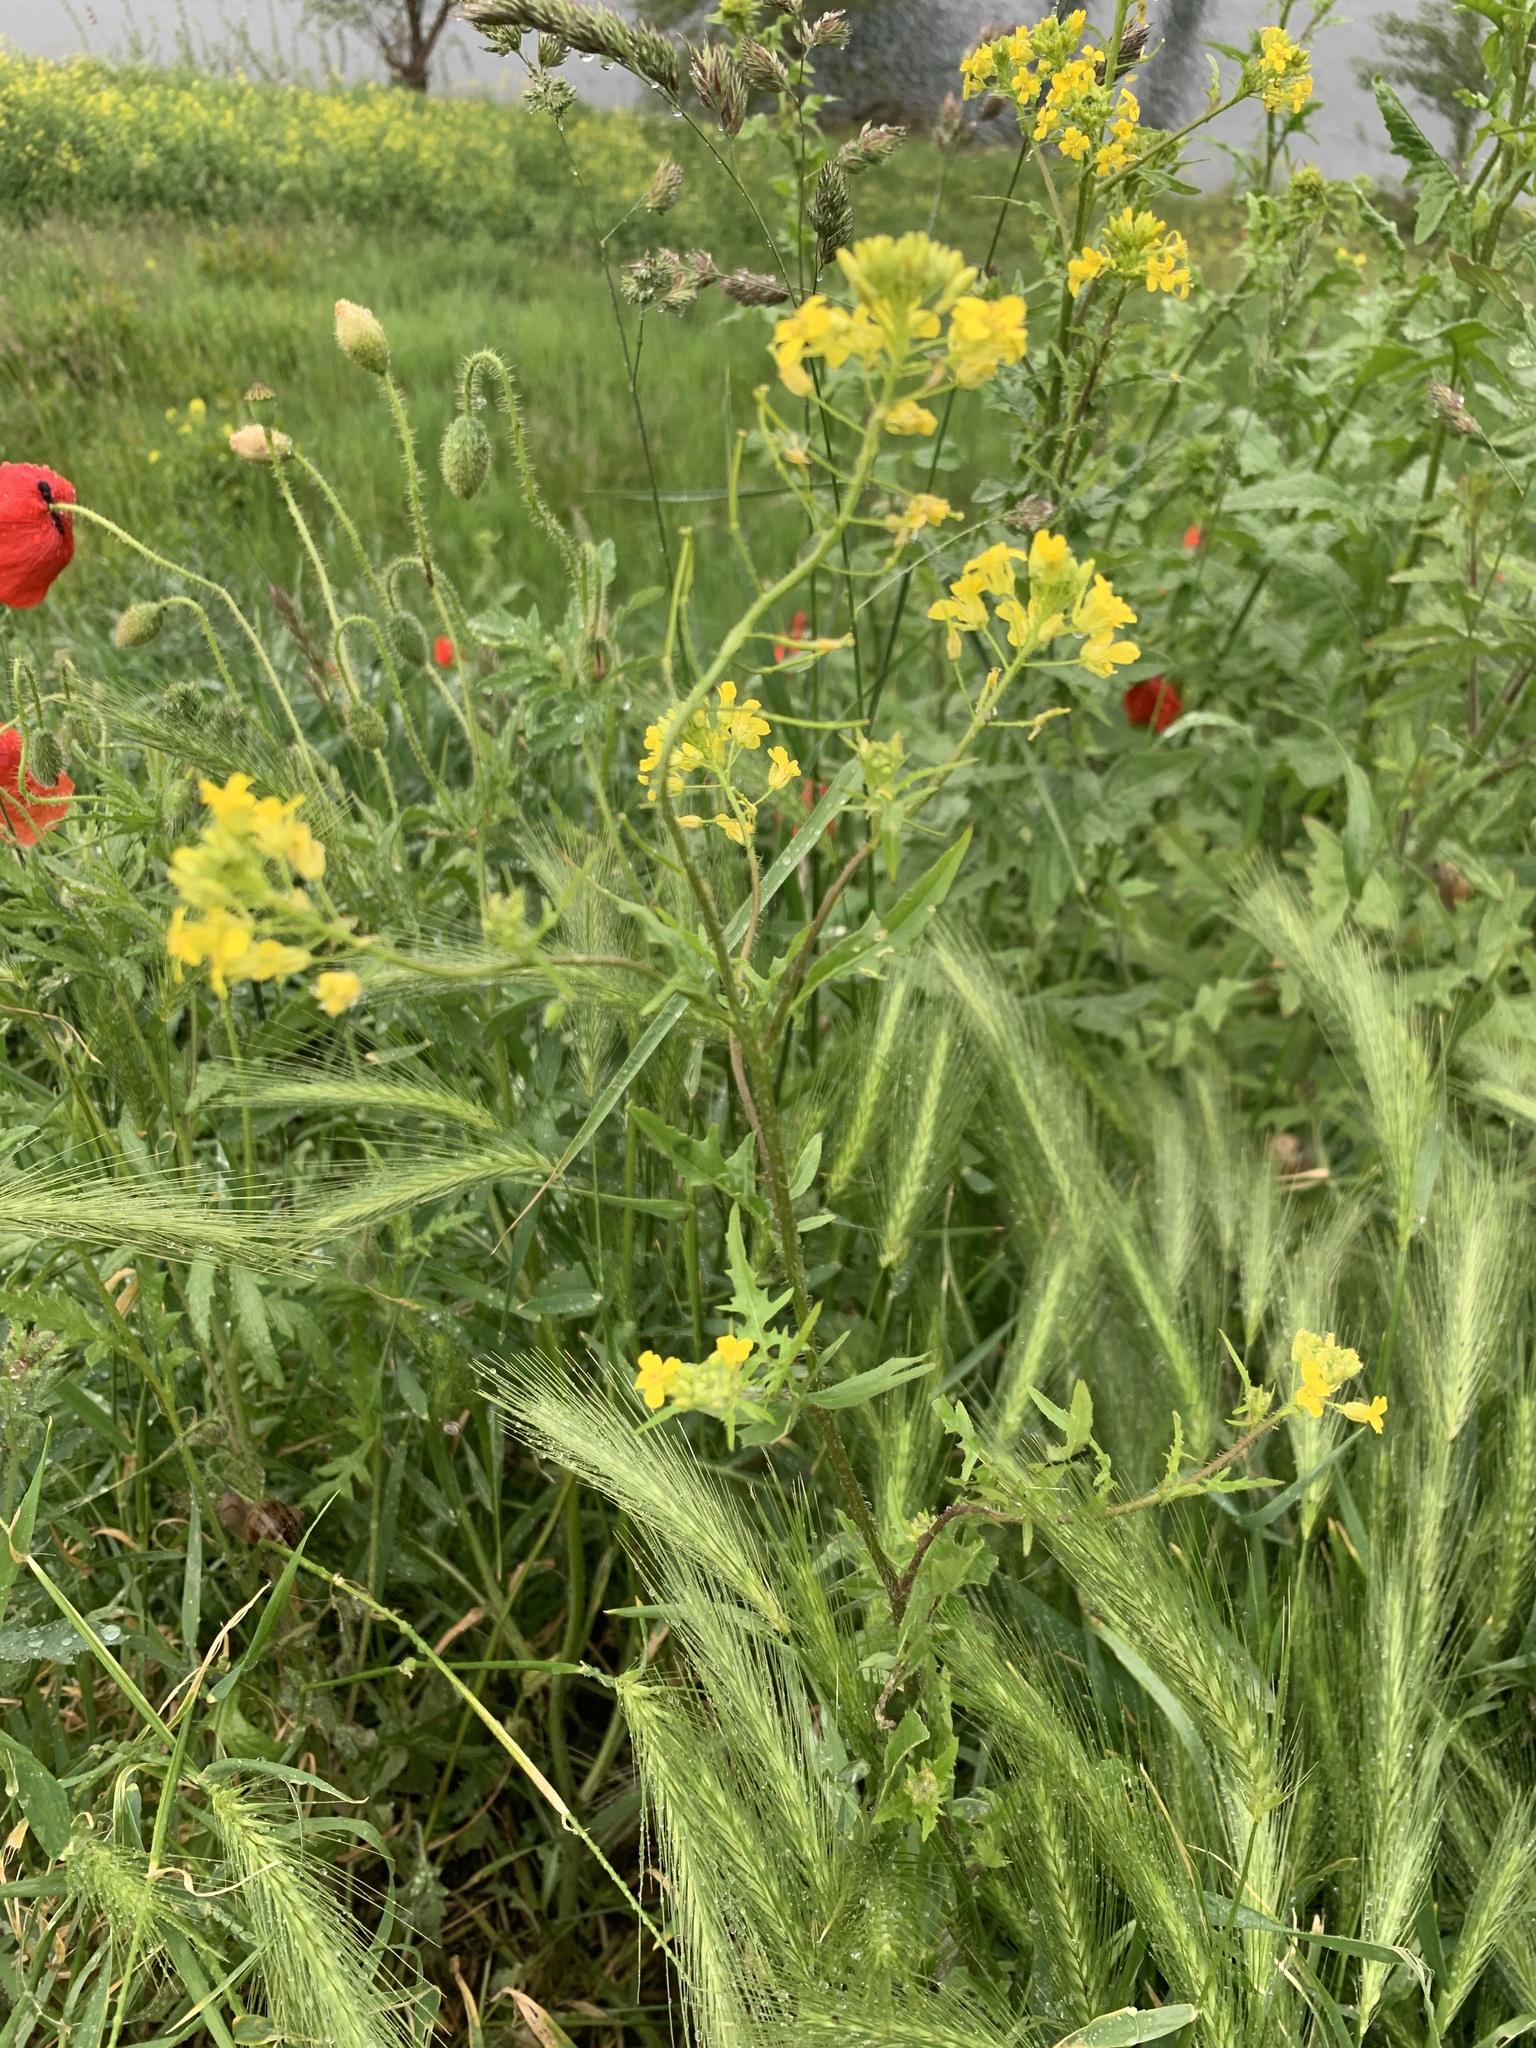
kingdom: Plantae
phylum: Tracheophyta
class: Magnoliopsida
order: Brassicales
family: Brassicaceae
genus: Sisymbrium
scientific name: Sisymbrium loeselii
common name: False london-rocket
